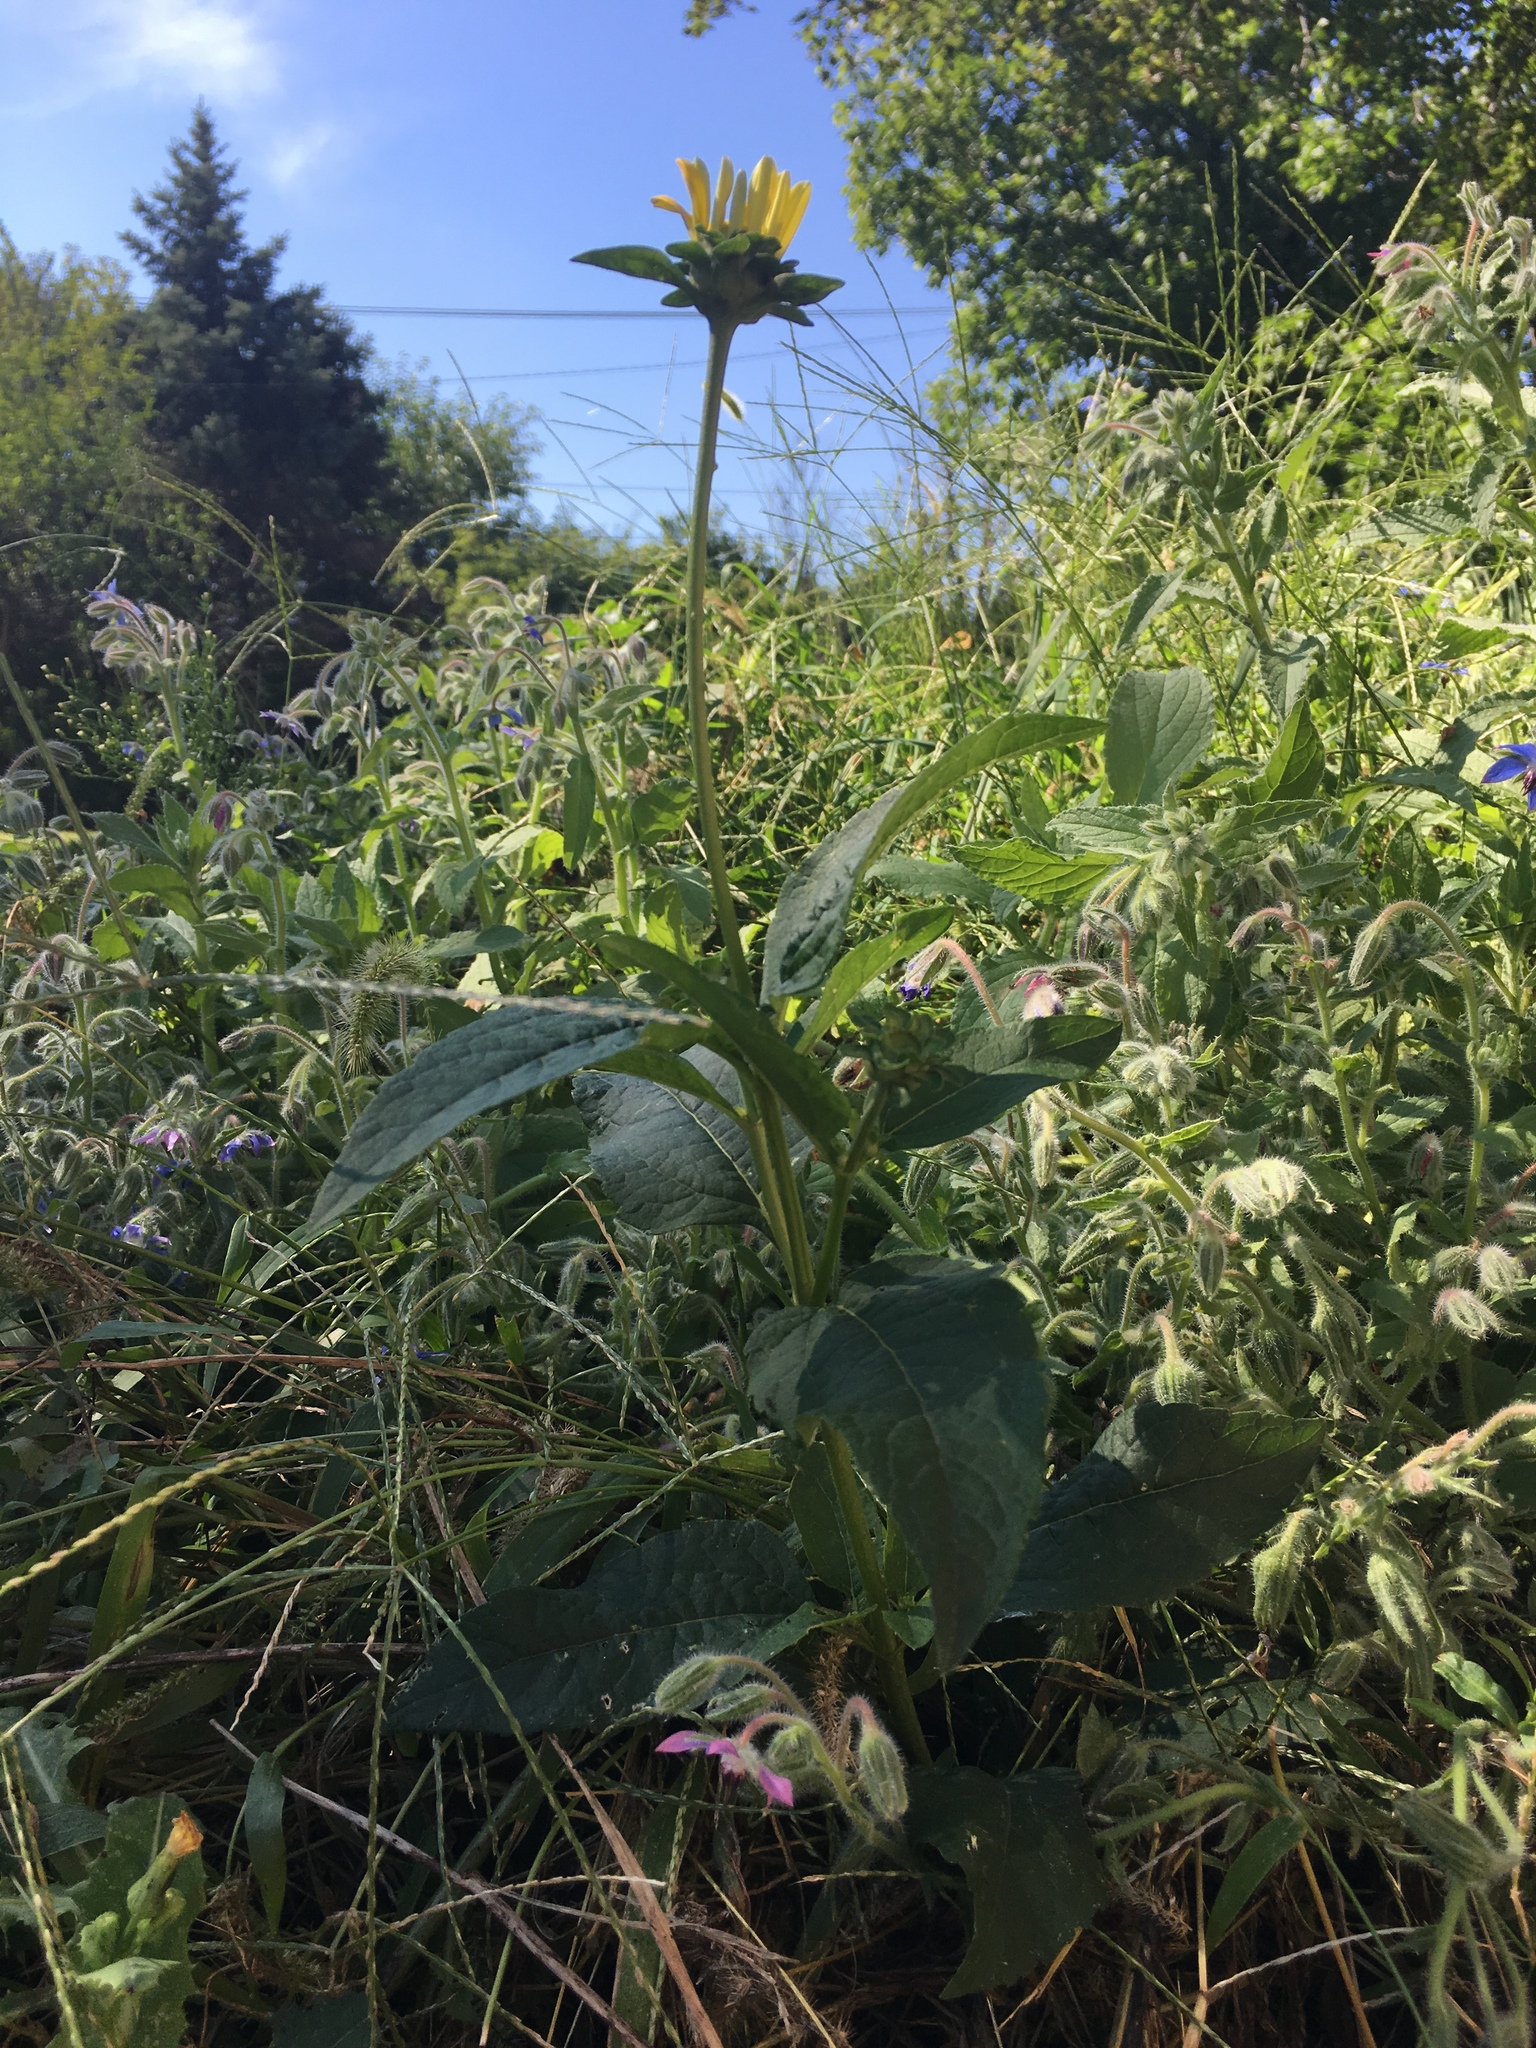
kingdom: Plantae
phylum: Tracheophyta
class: Magnoliopsida
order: Asterales
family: Asteraceae
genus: Heliopsis
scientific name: Heliopsis helianthoides
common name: False sunflower
